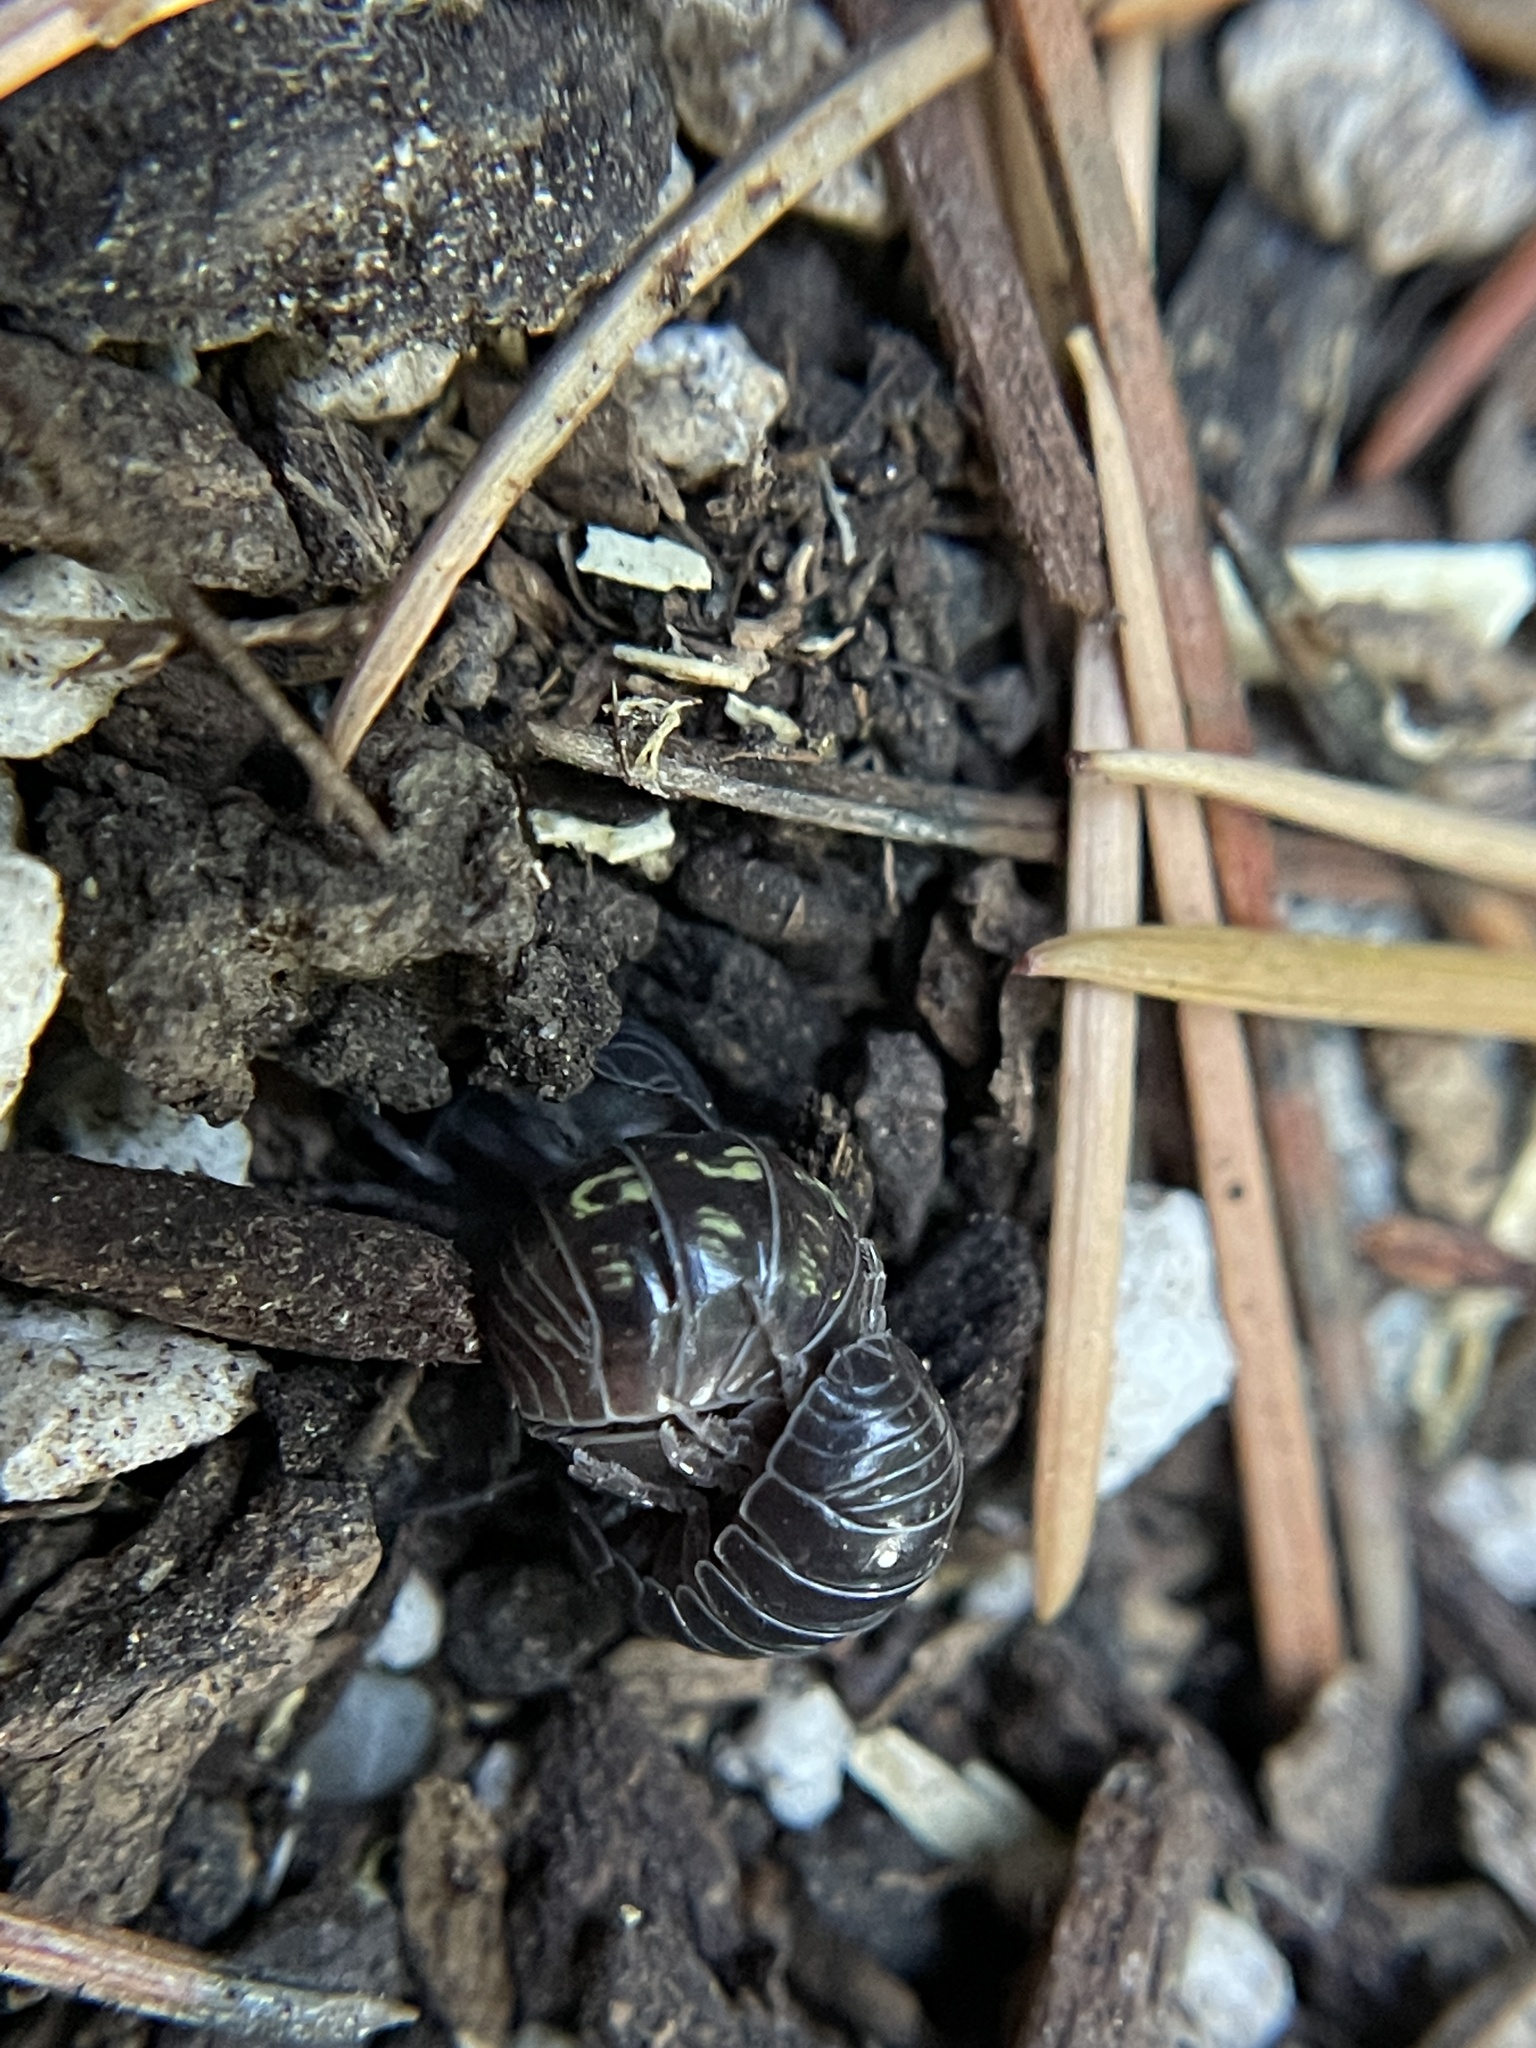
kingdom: Animalia
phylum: Arthropoda
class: Malacostraca
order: Isopoda
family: Armadillidiidae
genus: Armadillidium
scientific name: Armadillidium vulgare
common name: Common pill woodlouse
